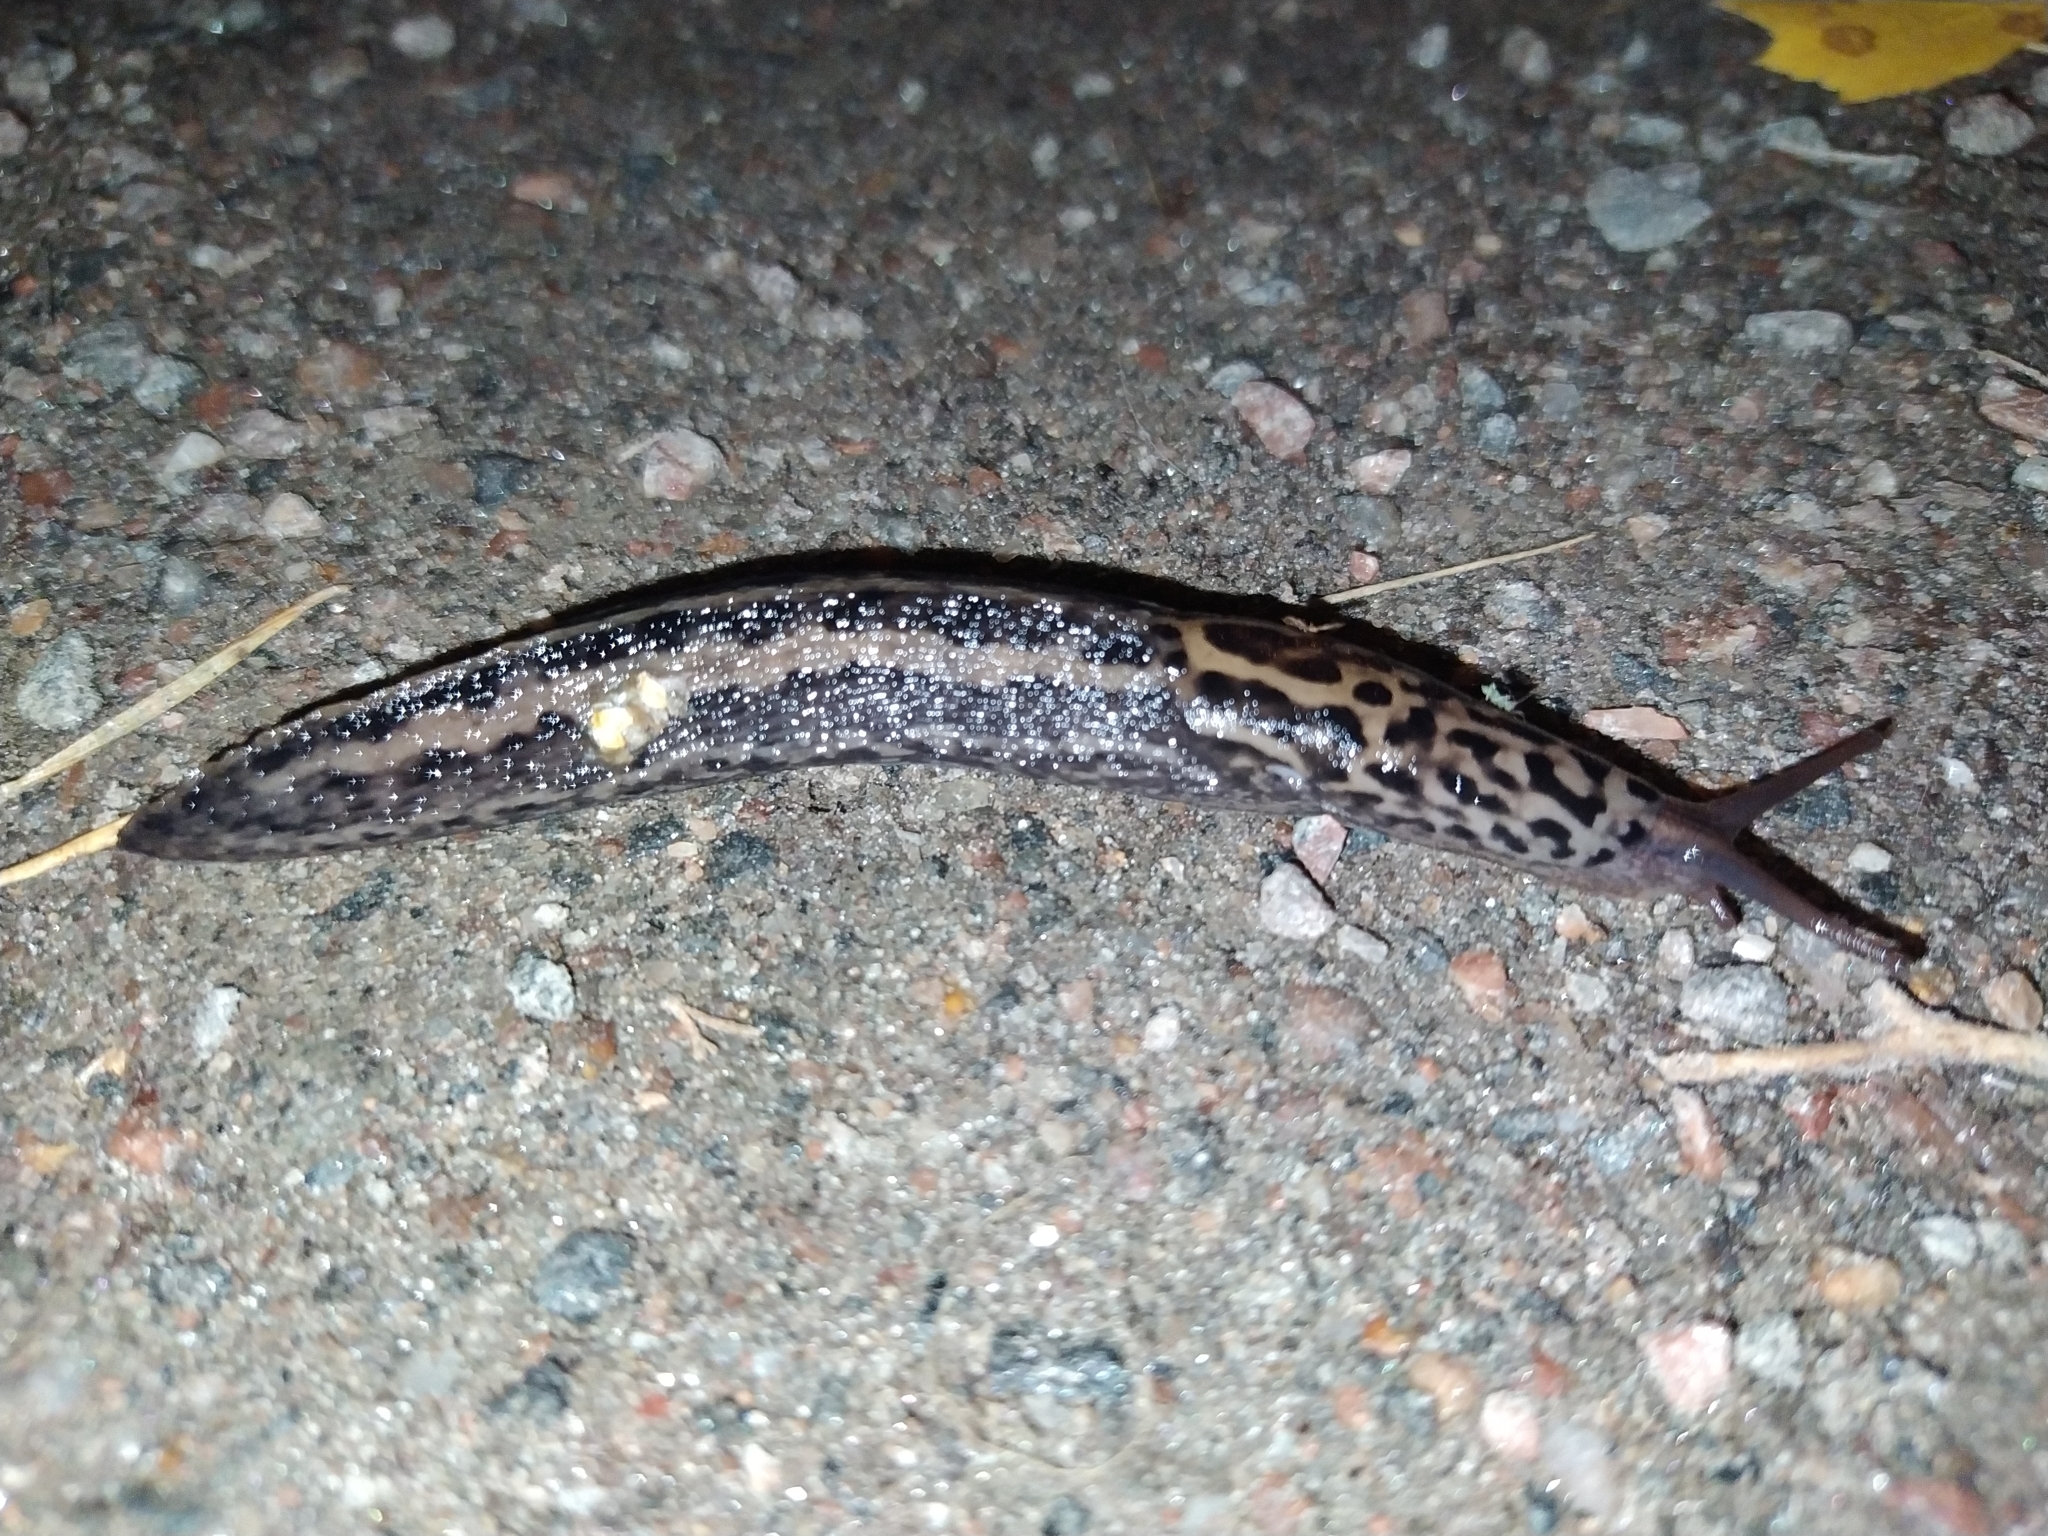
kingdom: Animalia
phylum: Mollusca
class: Gastropoda
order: Stylommatophora
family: Limacidae
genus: Limax
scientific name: Limax maximus
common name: Great grey slug
